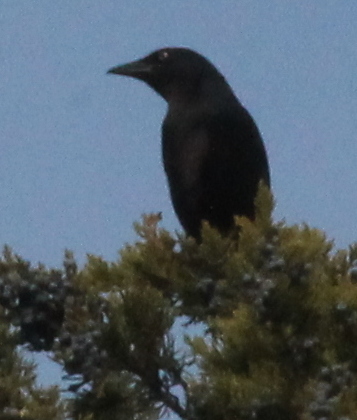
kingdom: Animalia
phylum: Chordata
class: Aves
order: Passeriformes
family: Icteridae
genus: Quiscalus
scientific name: Quiscalus quiscula
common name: Common grackle
